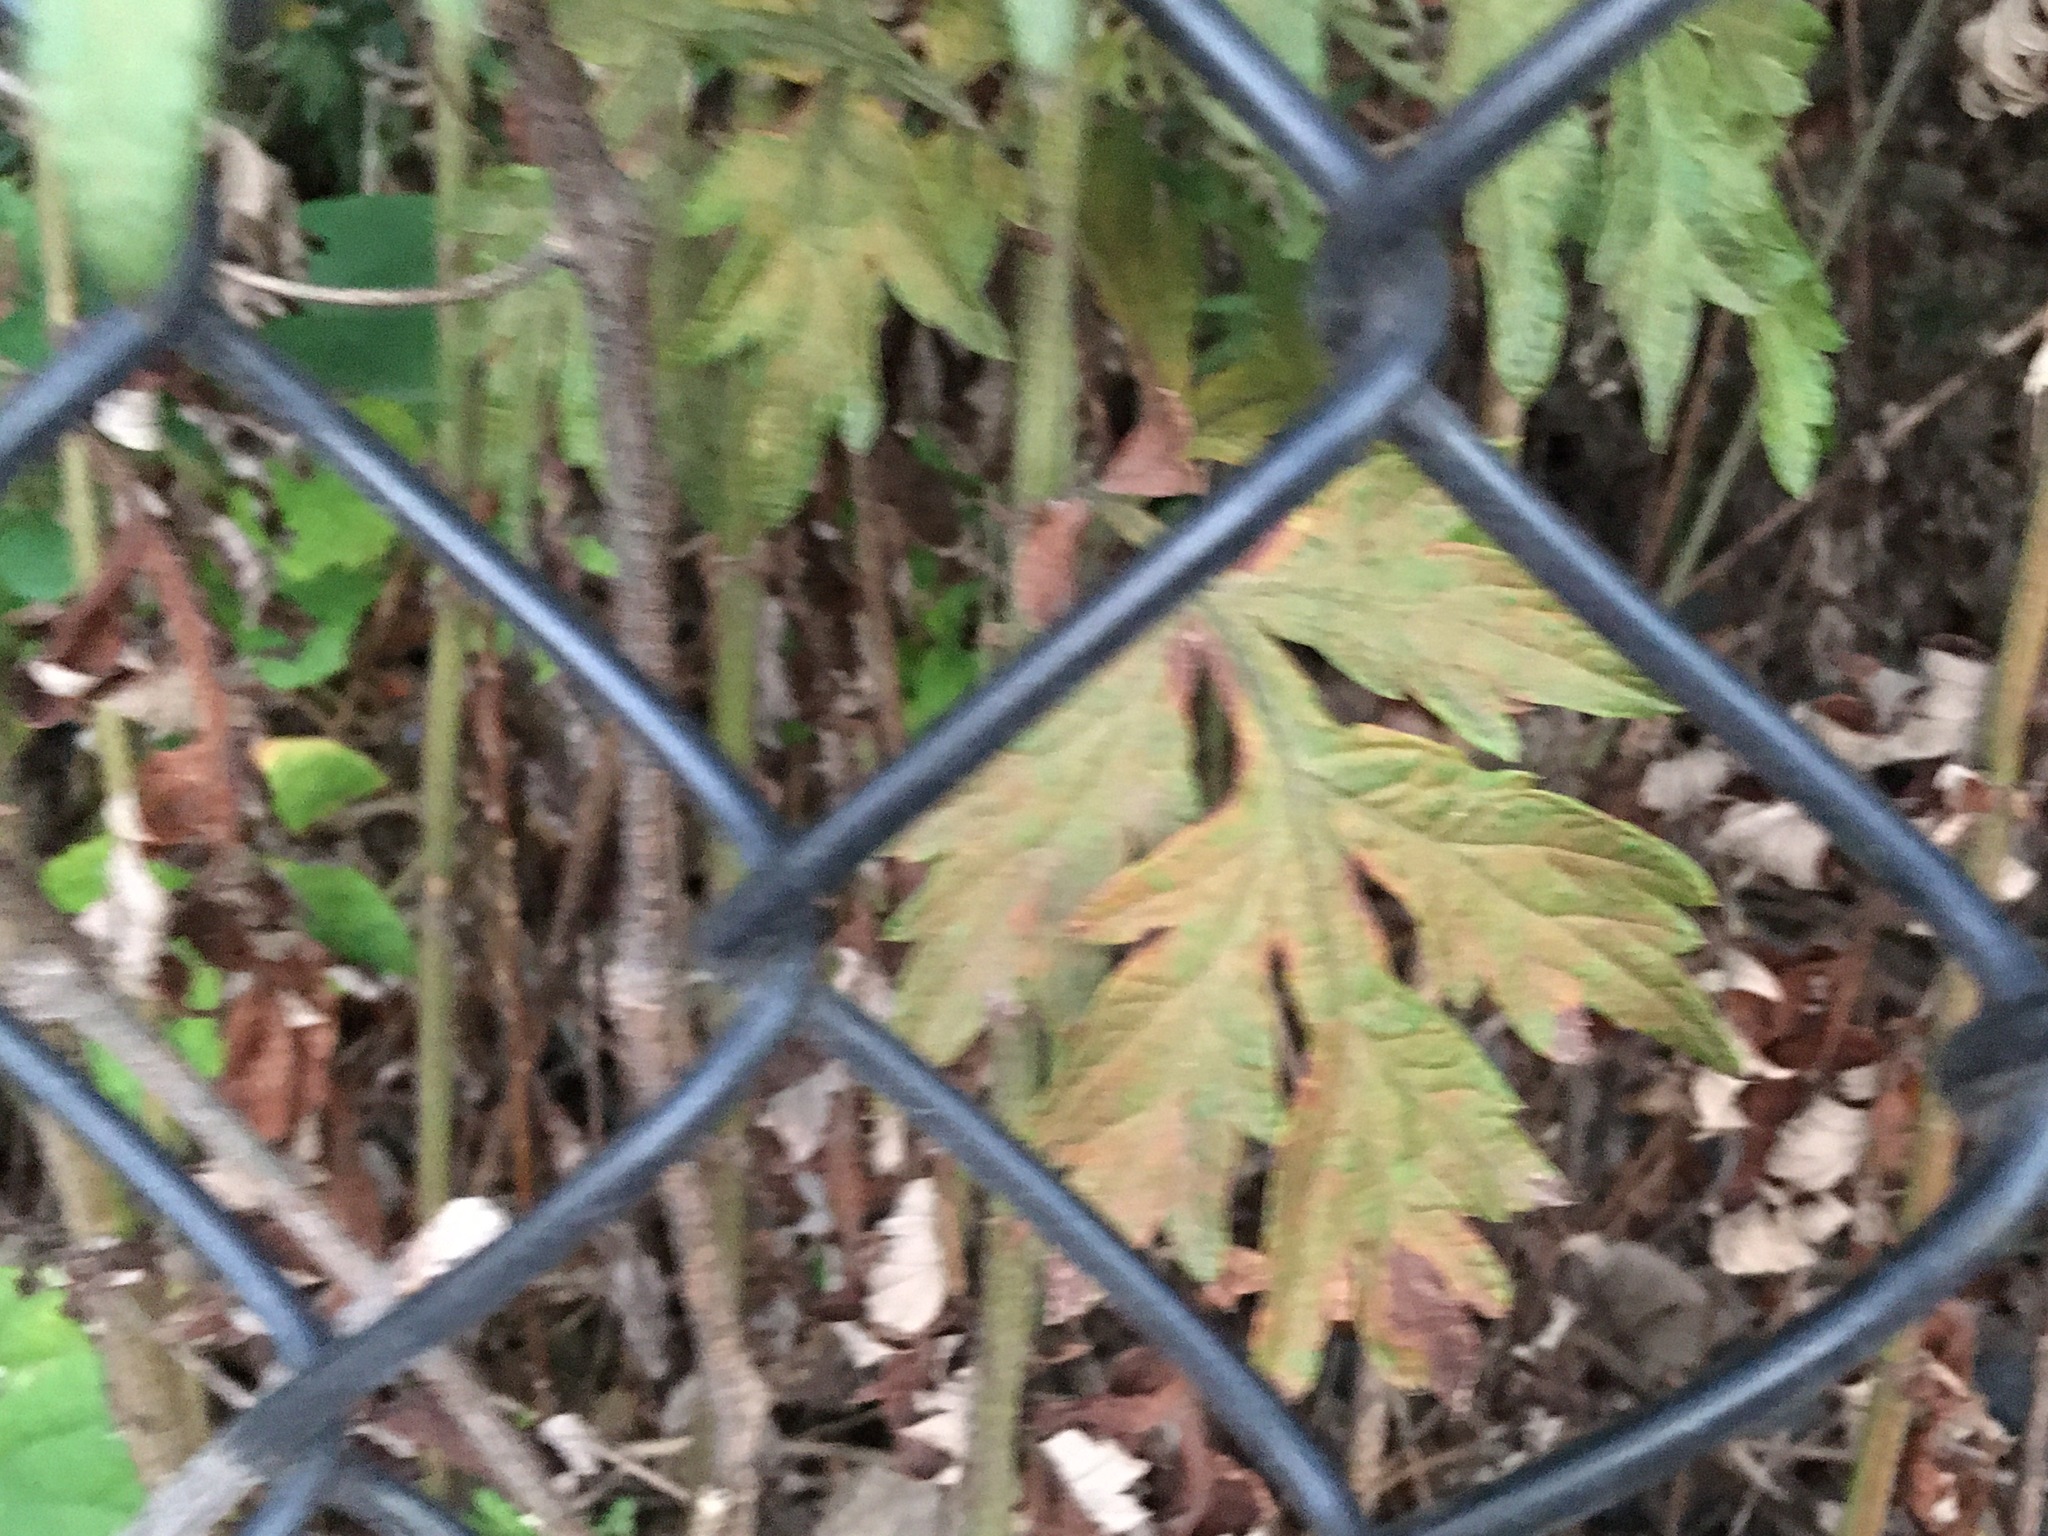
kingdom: Plantae
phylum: Tracheophyta
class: Magnoliopsida
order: Asterales
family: Asteraceae
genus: Artemisia
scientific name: Artemisia vulgaris
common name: Mugwort
